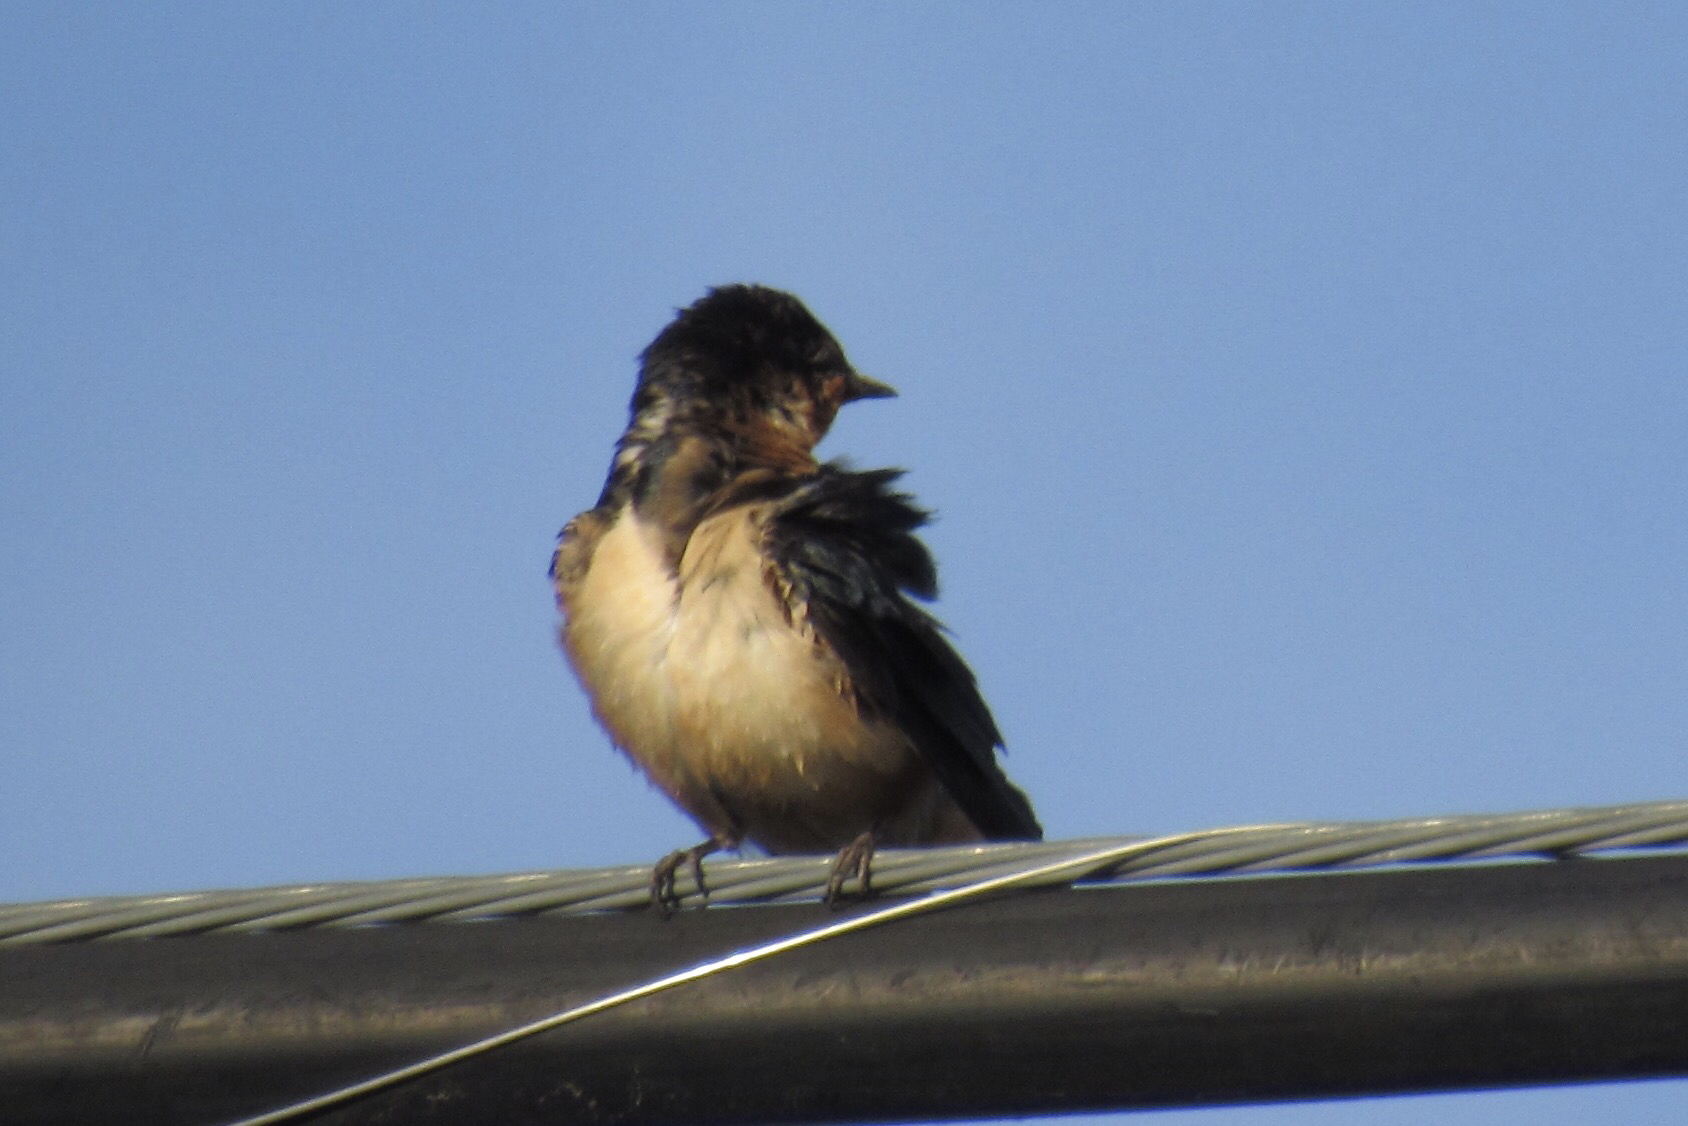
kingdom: Animalia
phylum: Chordata
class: Aves
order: Passeriformes
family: Hirundinidae
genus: Hirundo
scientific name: Hirundo rustica
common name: Barn swallow
